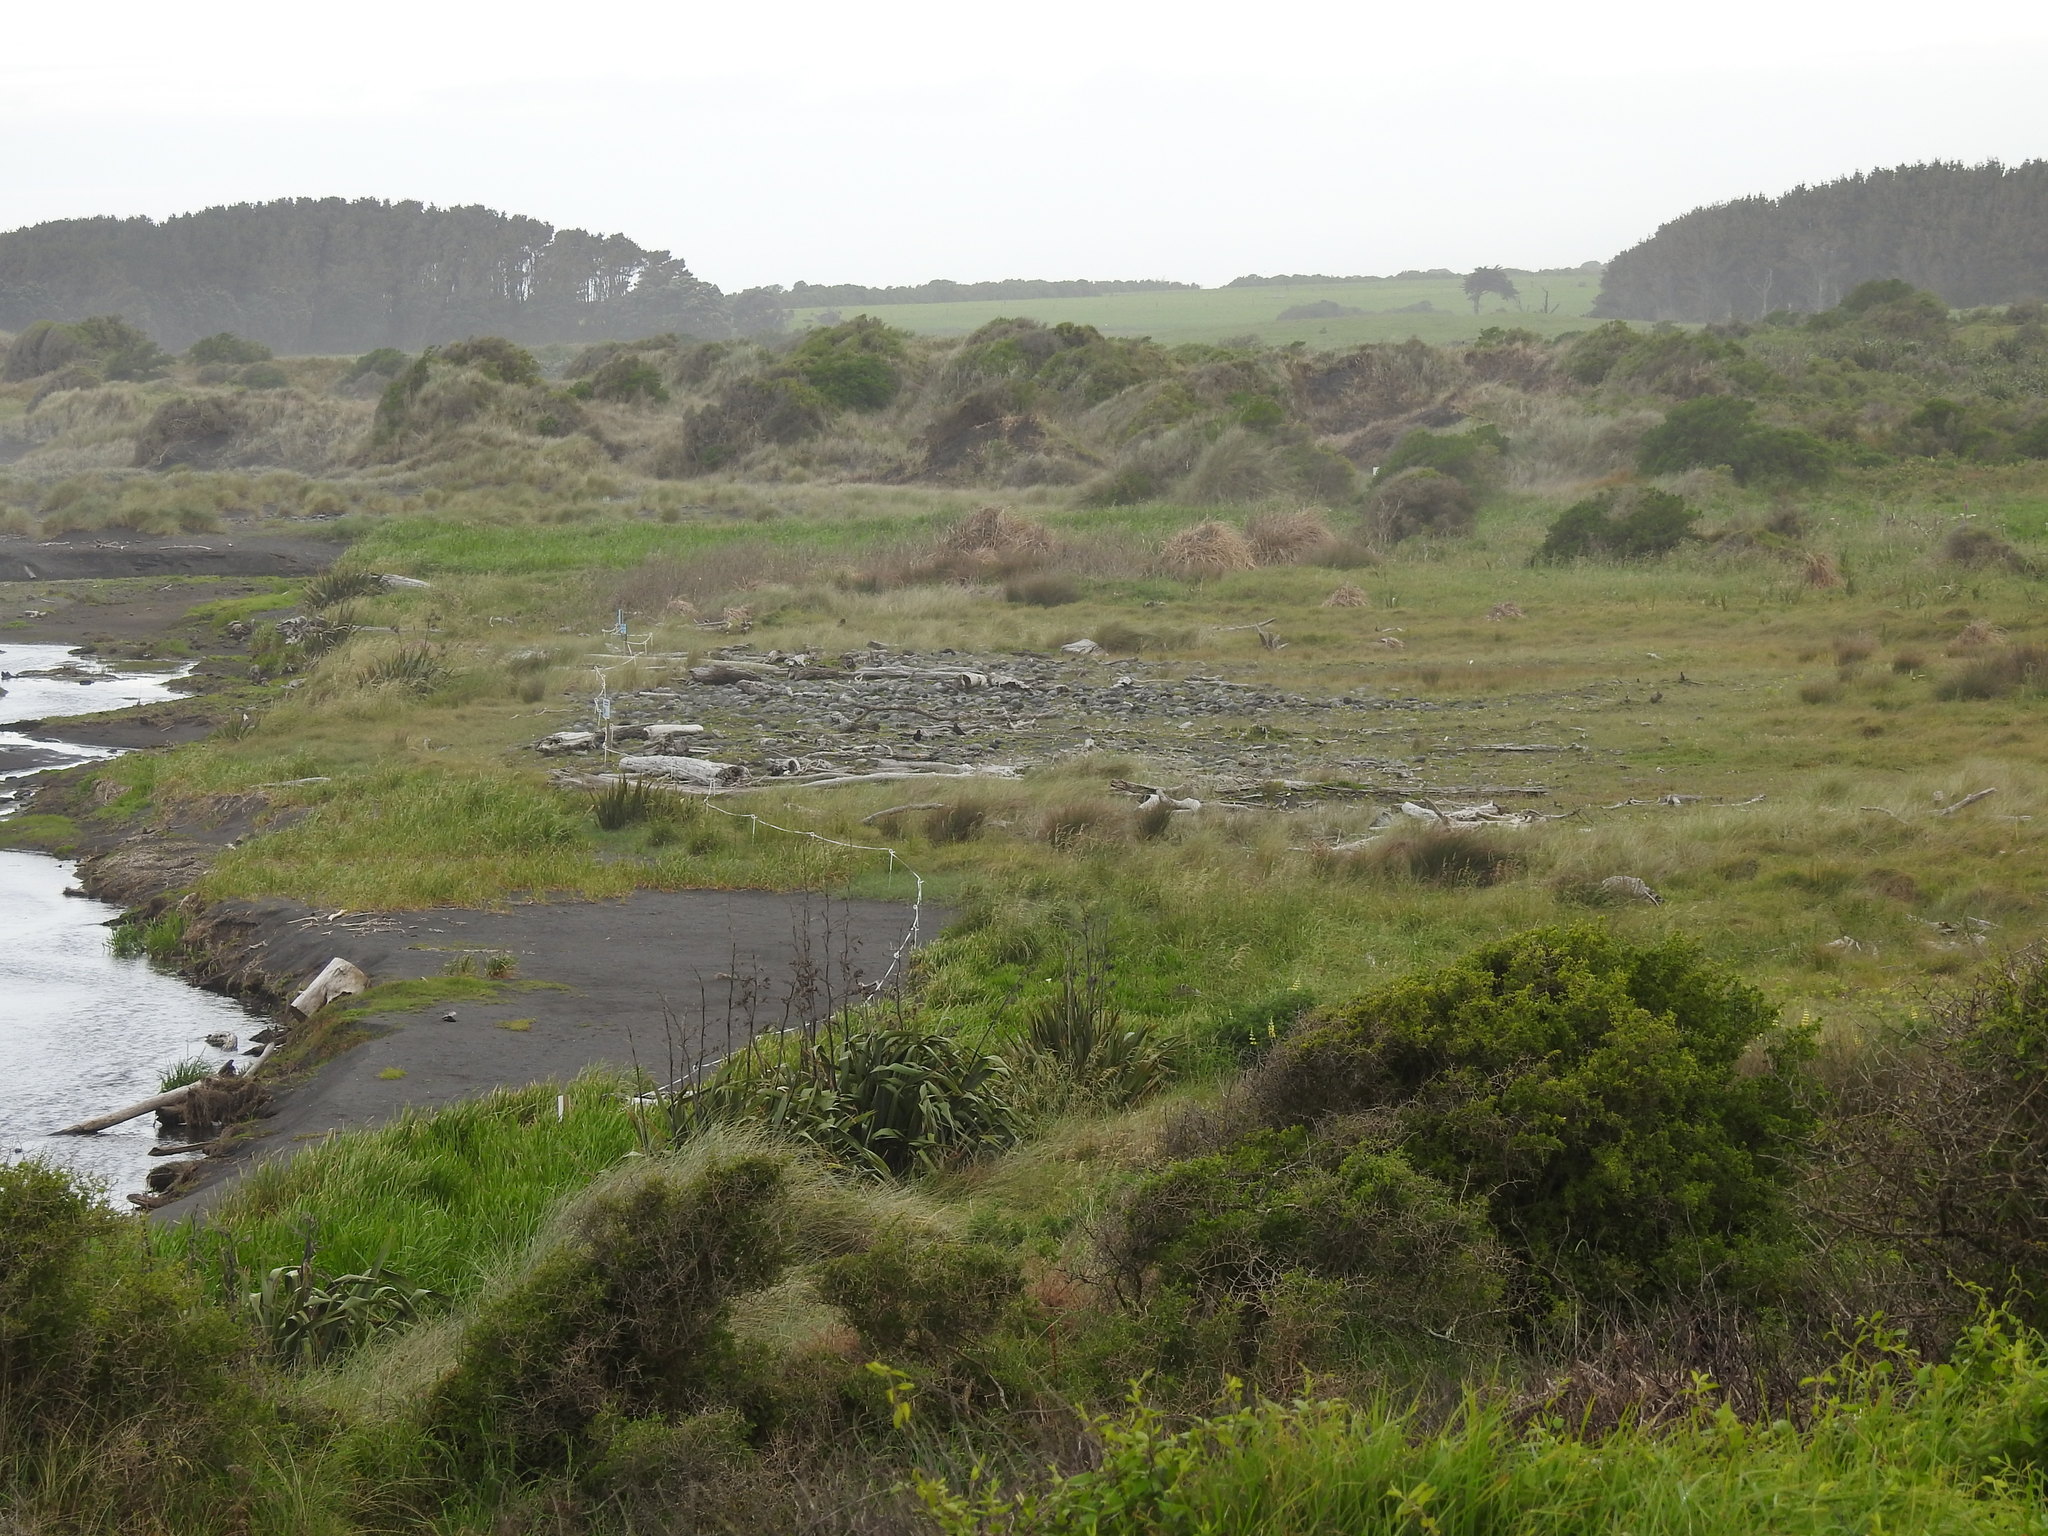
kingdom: Animalia
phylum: Chordata
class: Aves
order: Charadriiformes
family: Charadriidae
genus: Anarhynchus
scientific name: Anarhynchus
